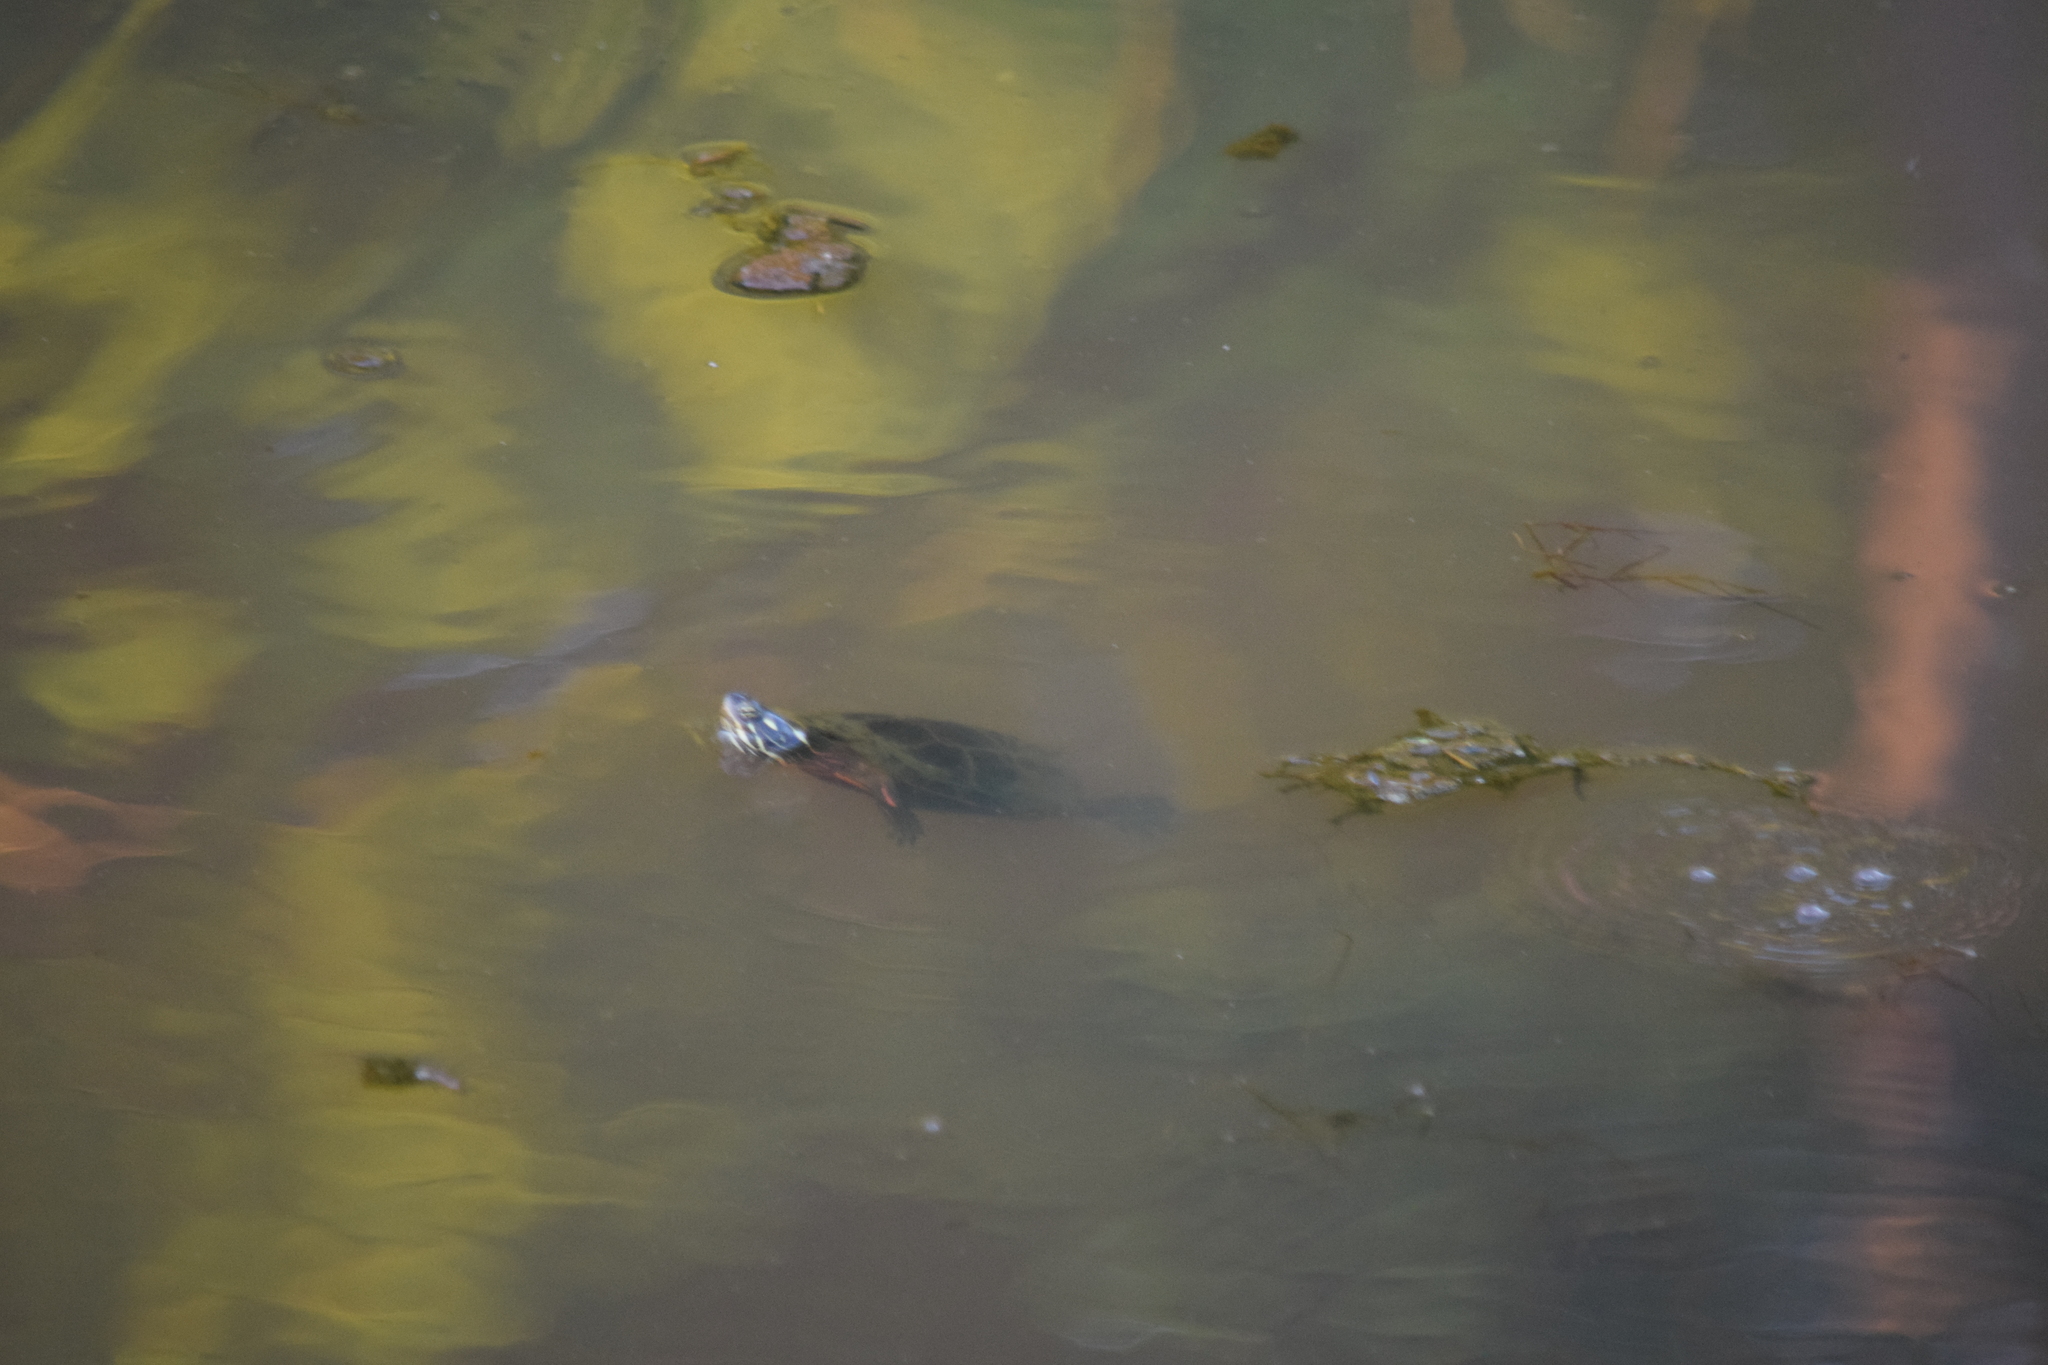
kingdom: Animalia
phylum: Chordata
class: Testudines
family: Emydidae
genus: Chrysemys
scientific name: Chrysemys picta
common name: Painted turtle
